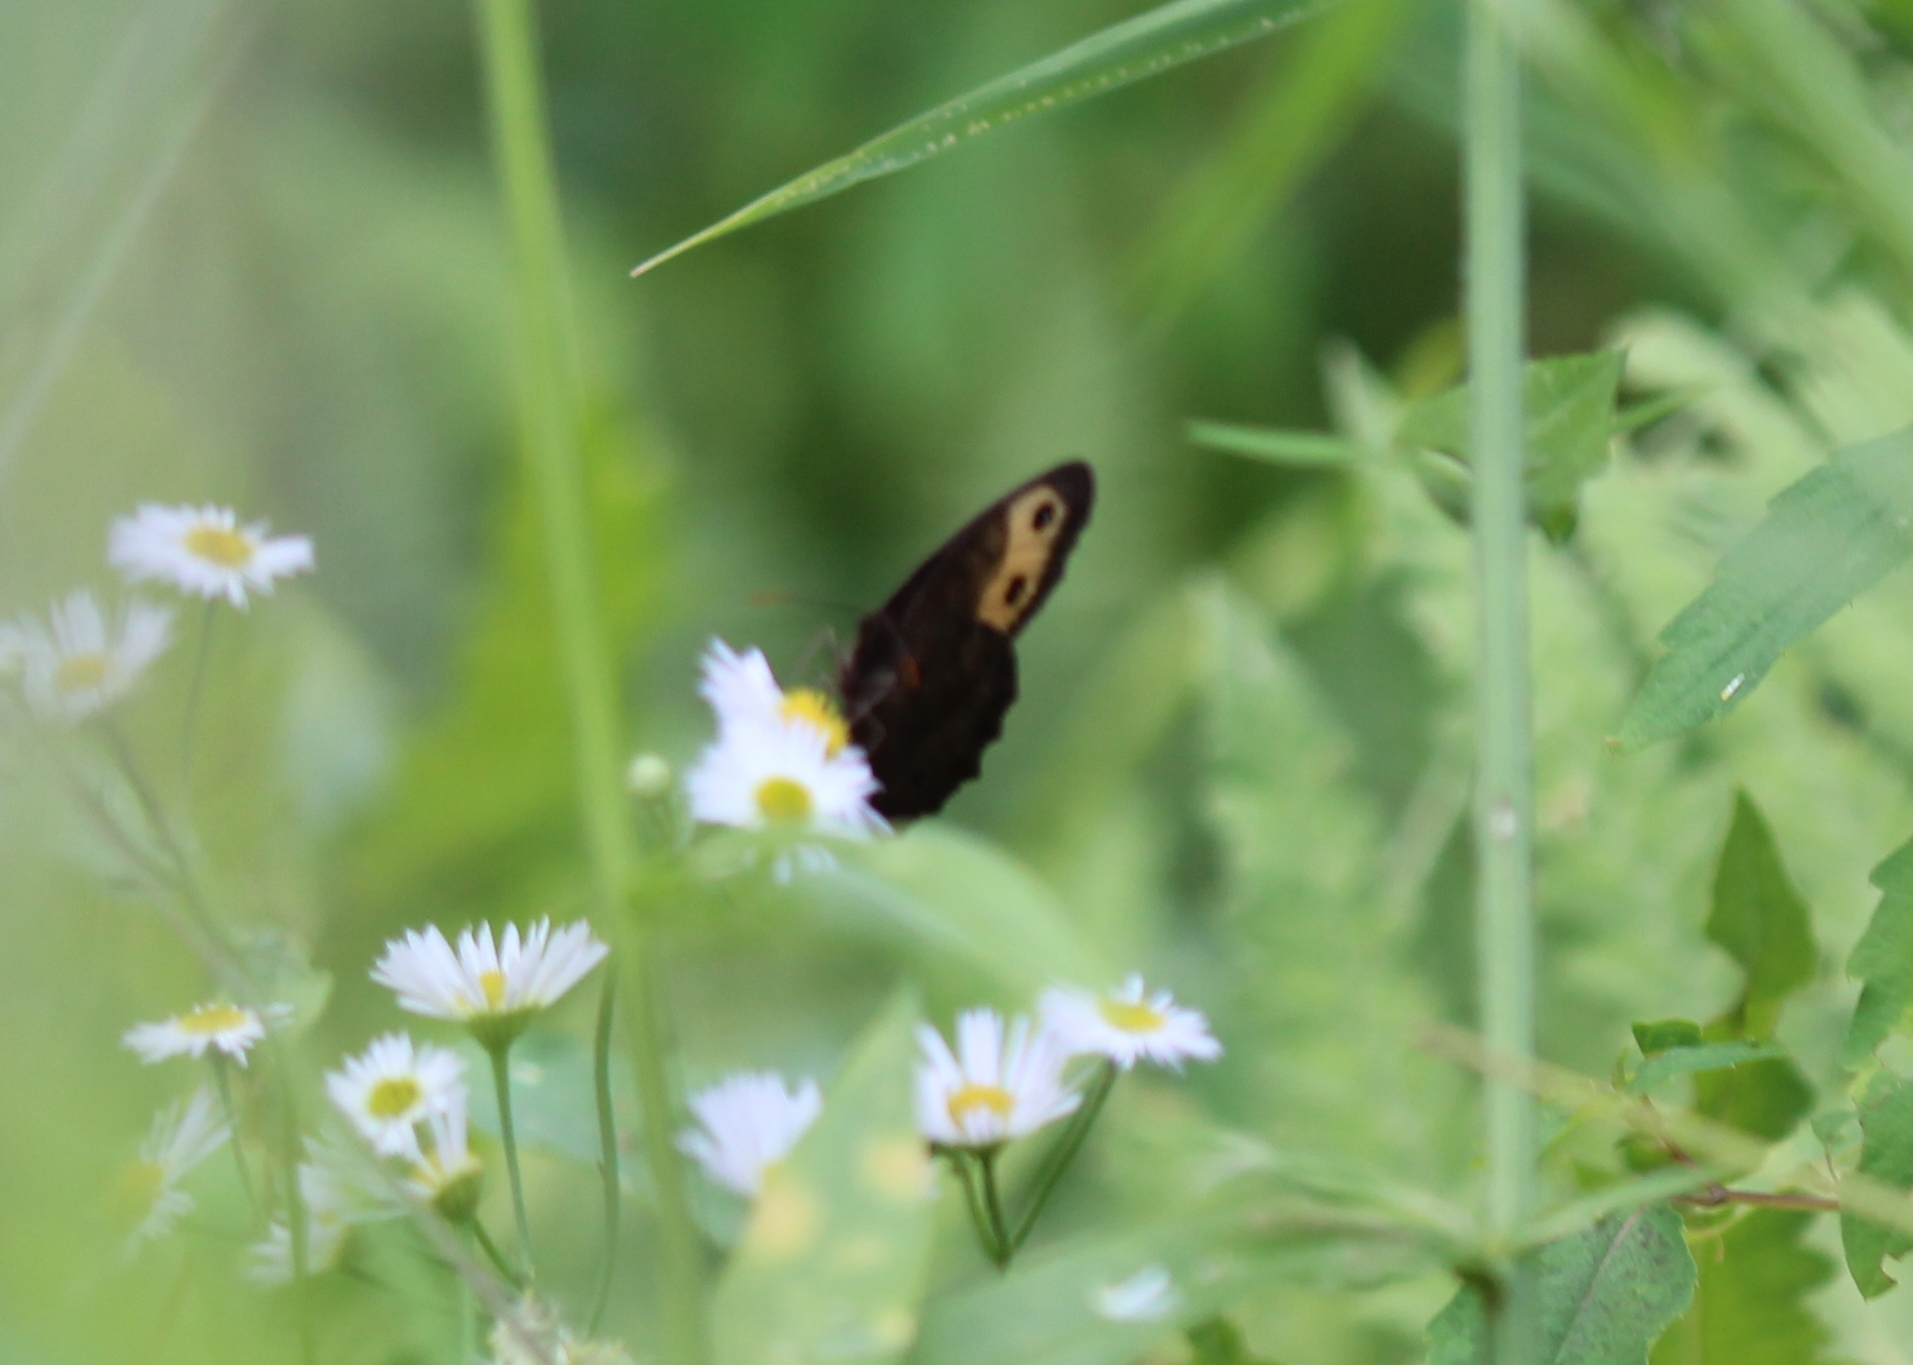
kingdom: Animalia
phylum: Arthropoda
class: Insecta
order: Lepidoptera
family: Nymphalidae
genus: Cercyonis
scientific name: Cercyonis pegala
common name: Common wood-nymph
